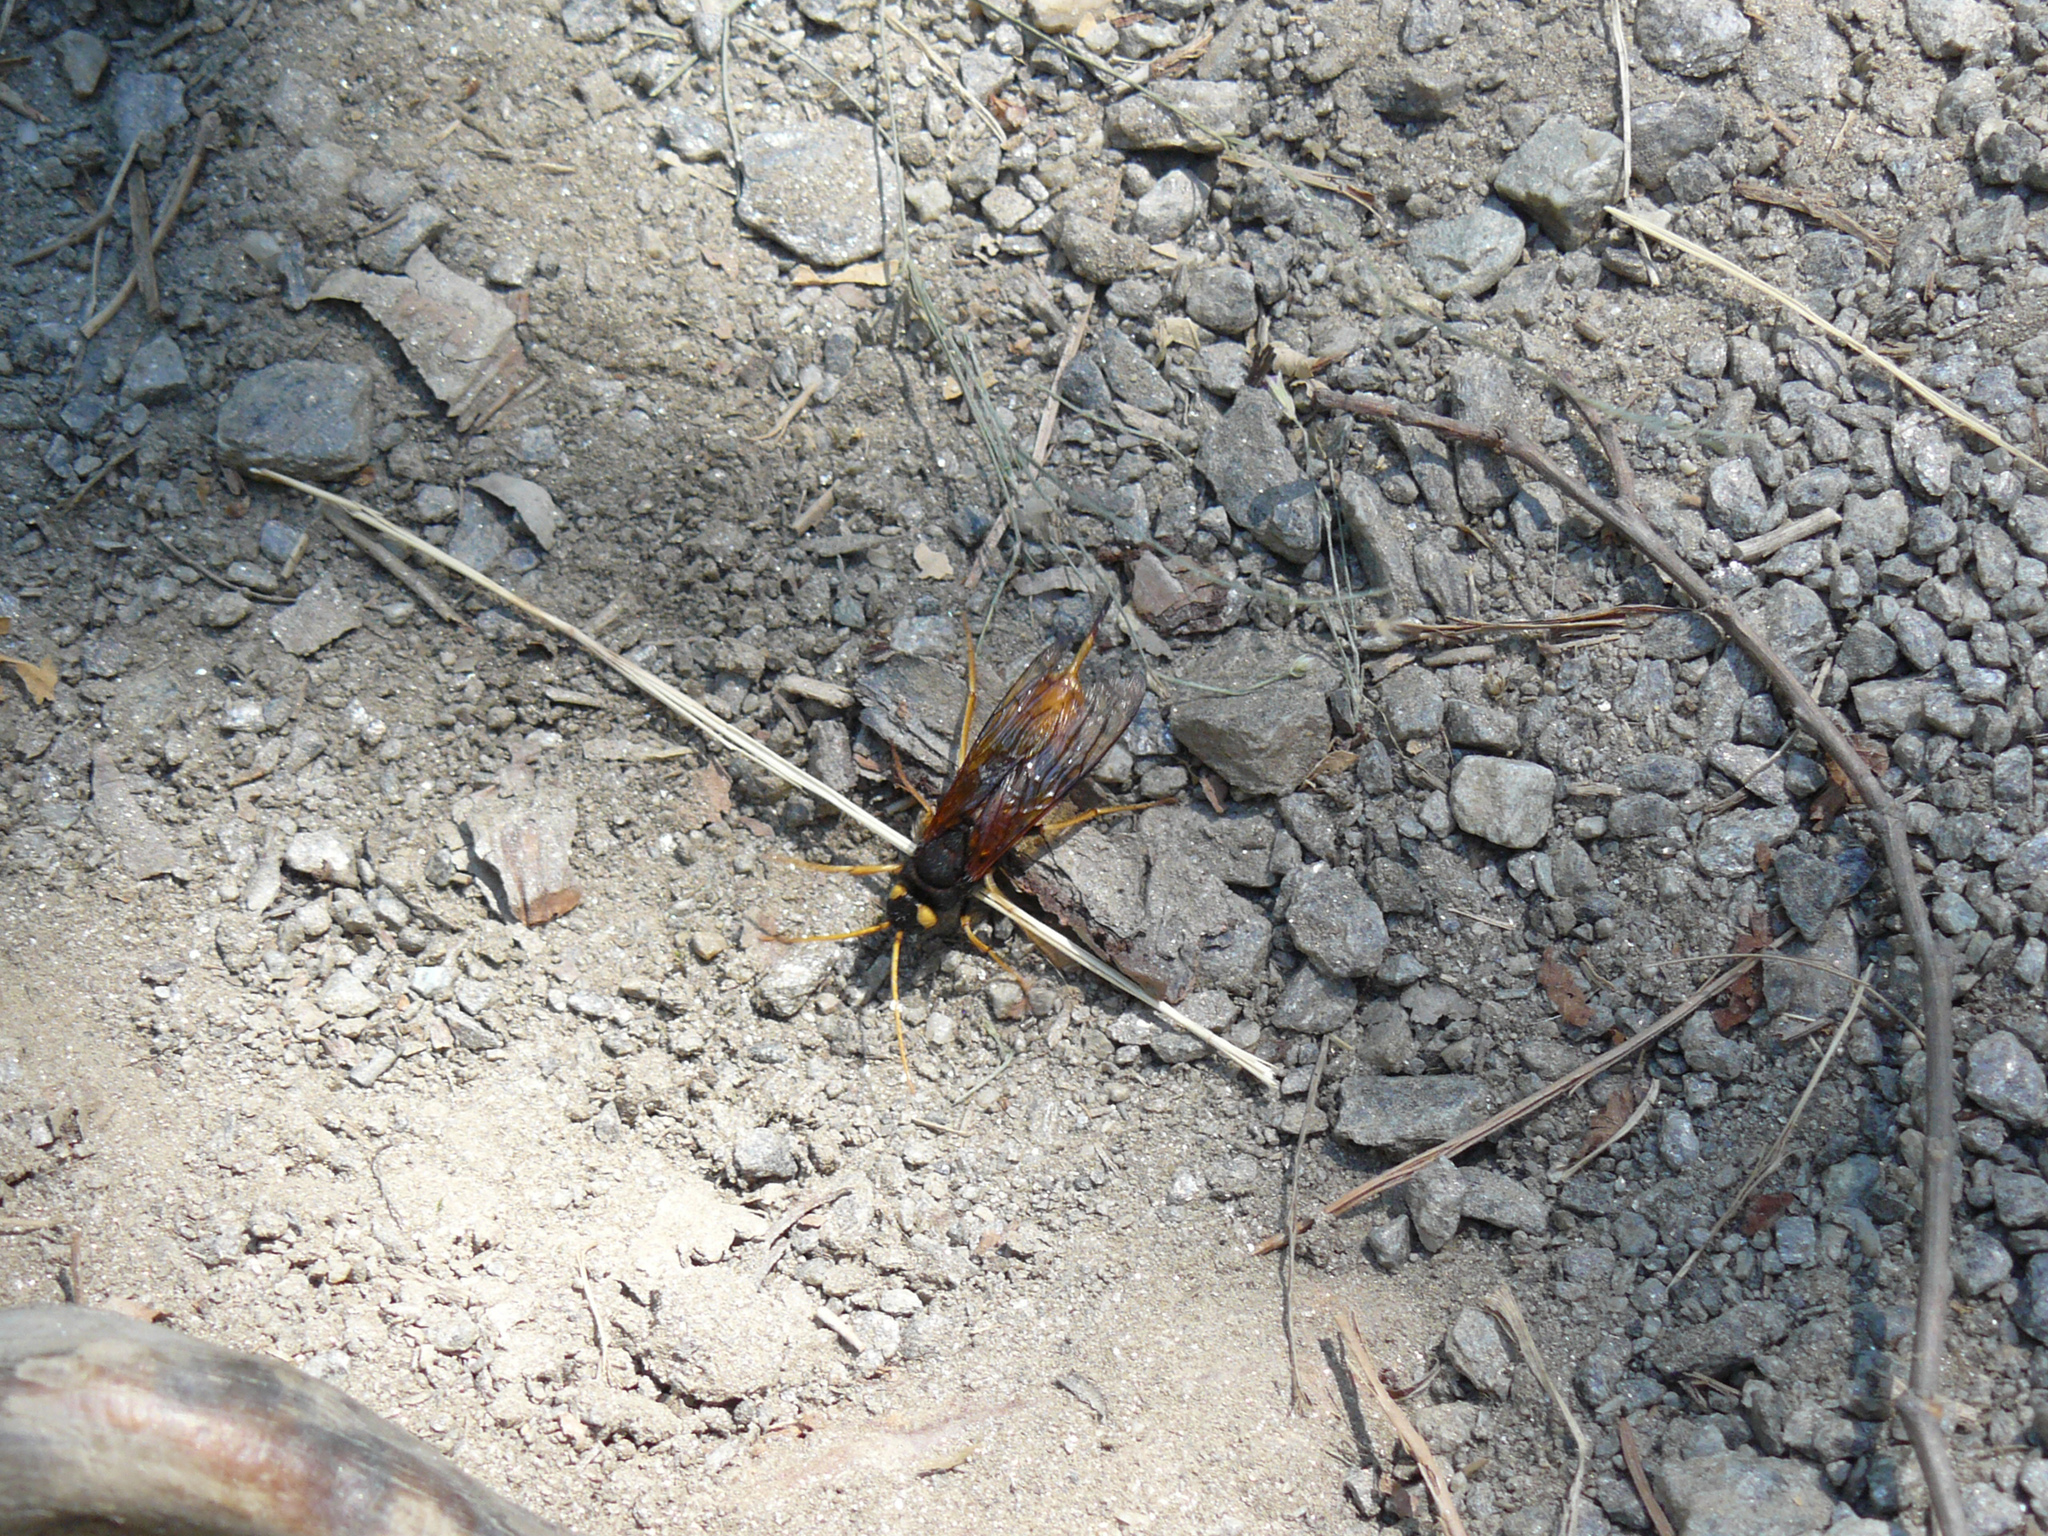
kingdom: Animalia
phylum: Arthropoda
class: Insecta
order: Hymenoptera
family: Siricidae
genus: Urocerus
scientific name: Urocerus gigas
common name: Giant woodwasp
